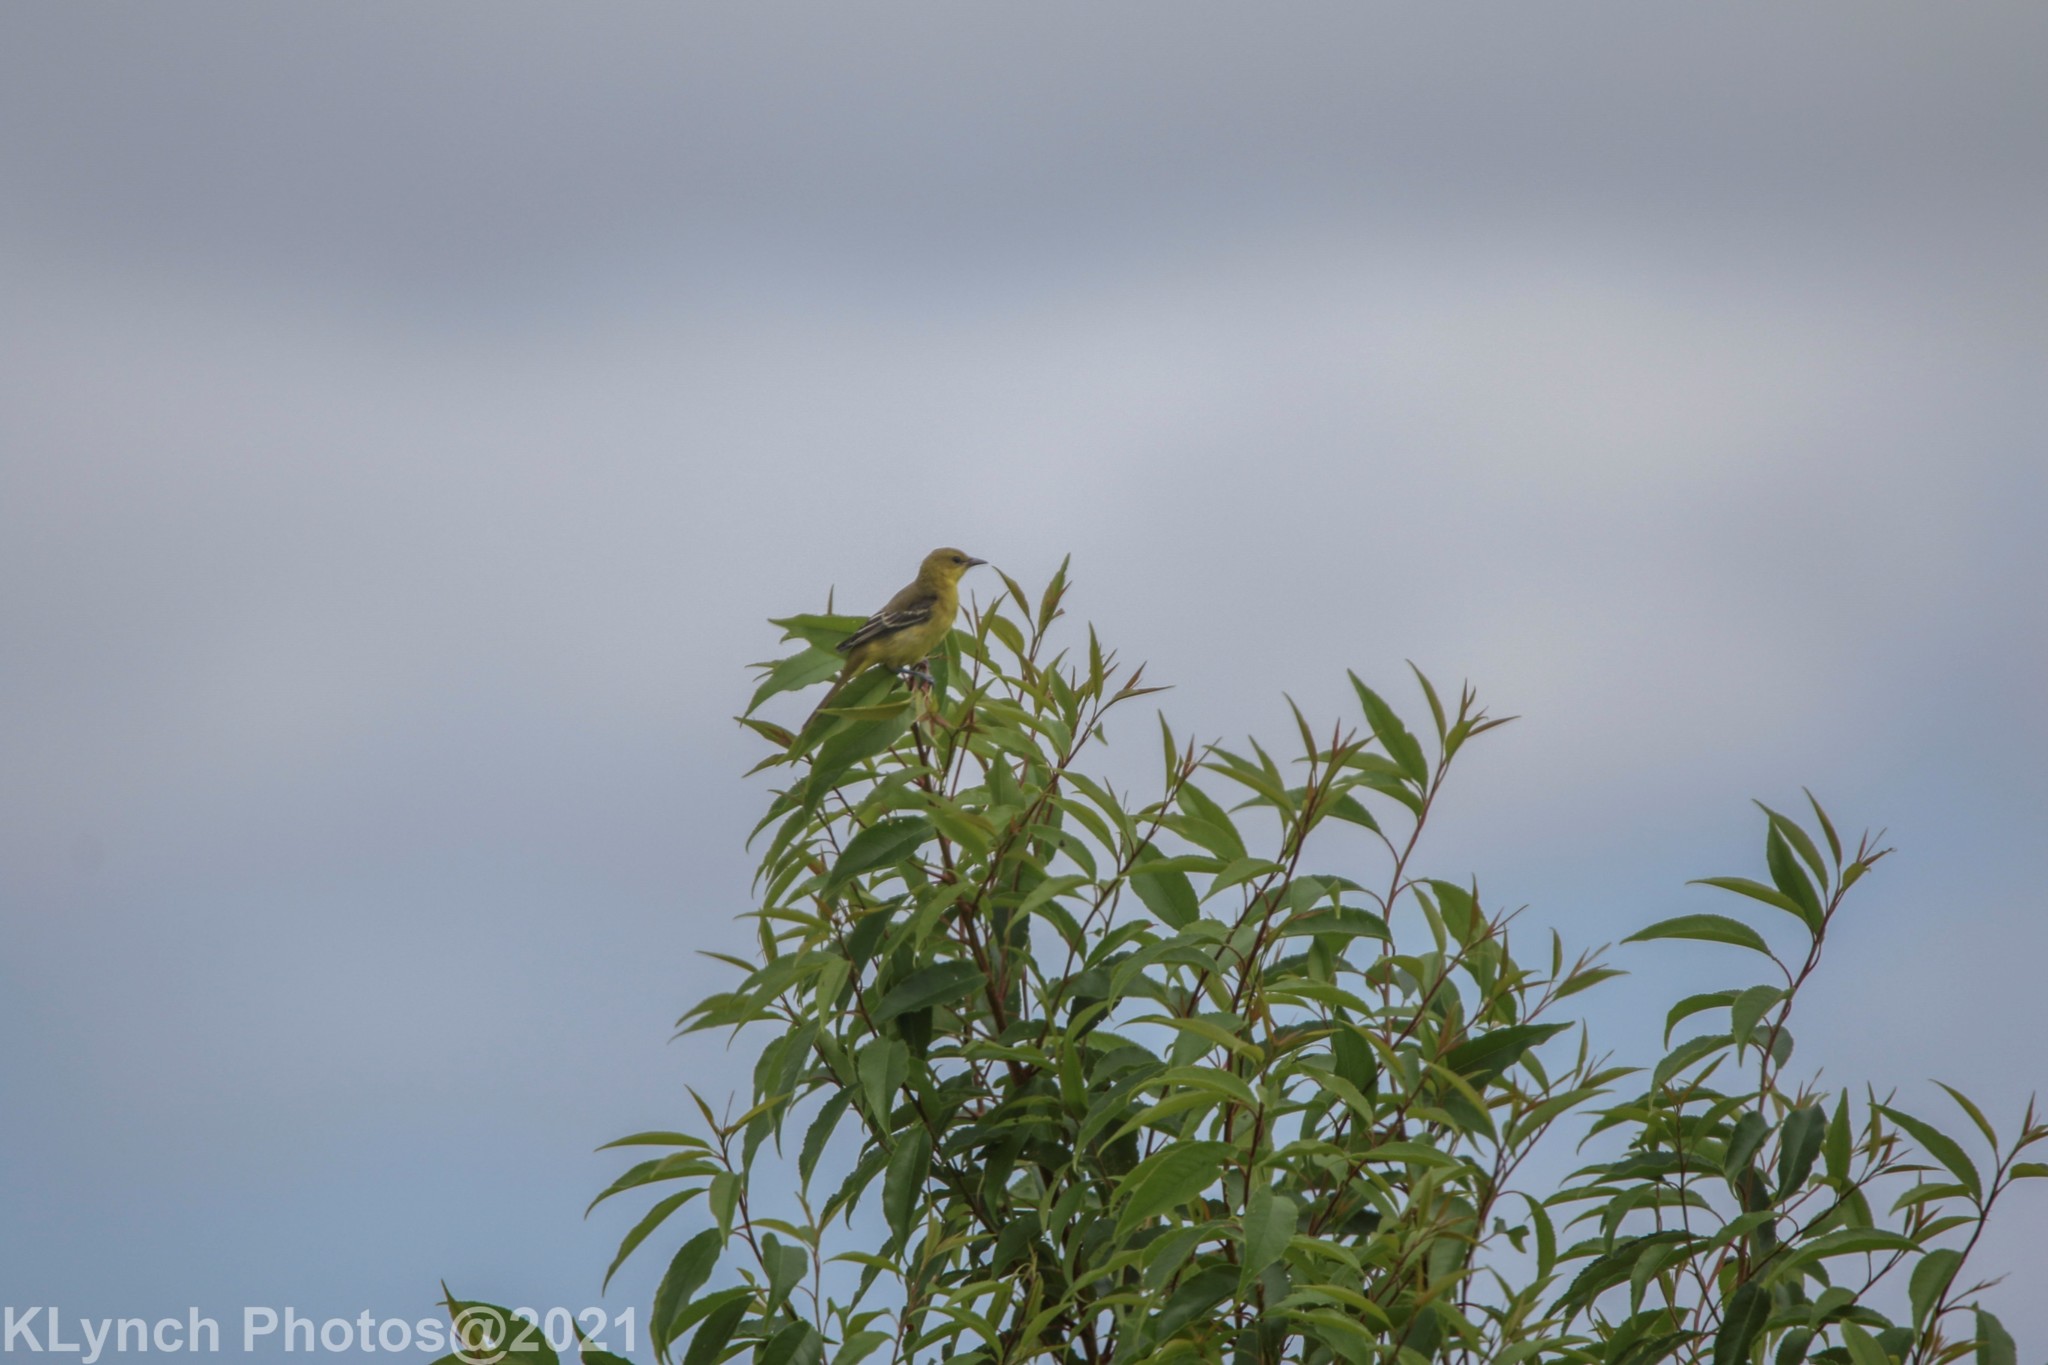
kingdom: Animalia
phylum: Chordata
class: Aves
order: Passeriformes
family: Icteridae
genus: Icterus
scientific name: Icterus spurius
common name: Orchard oriole
